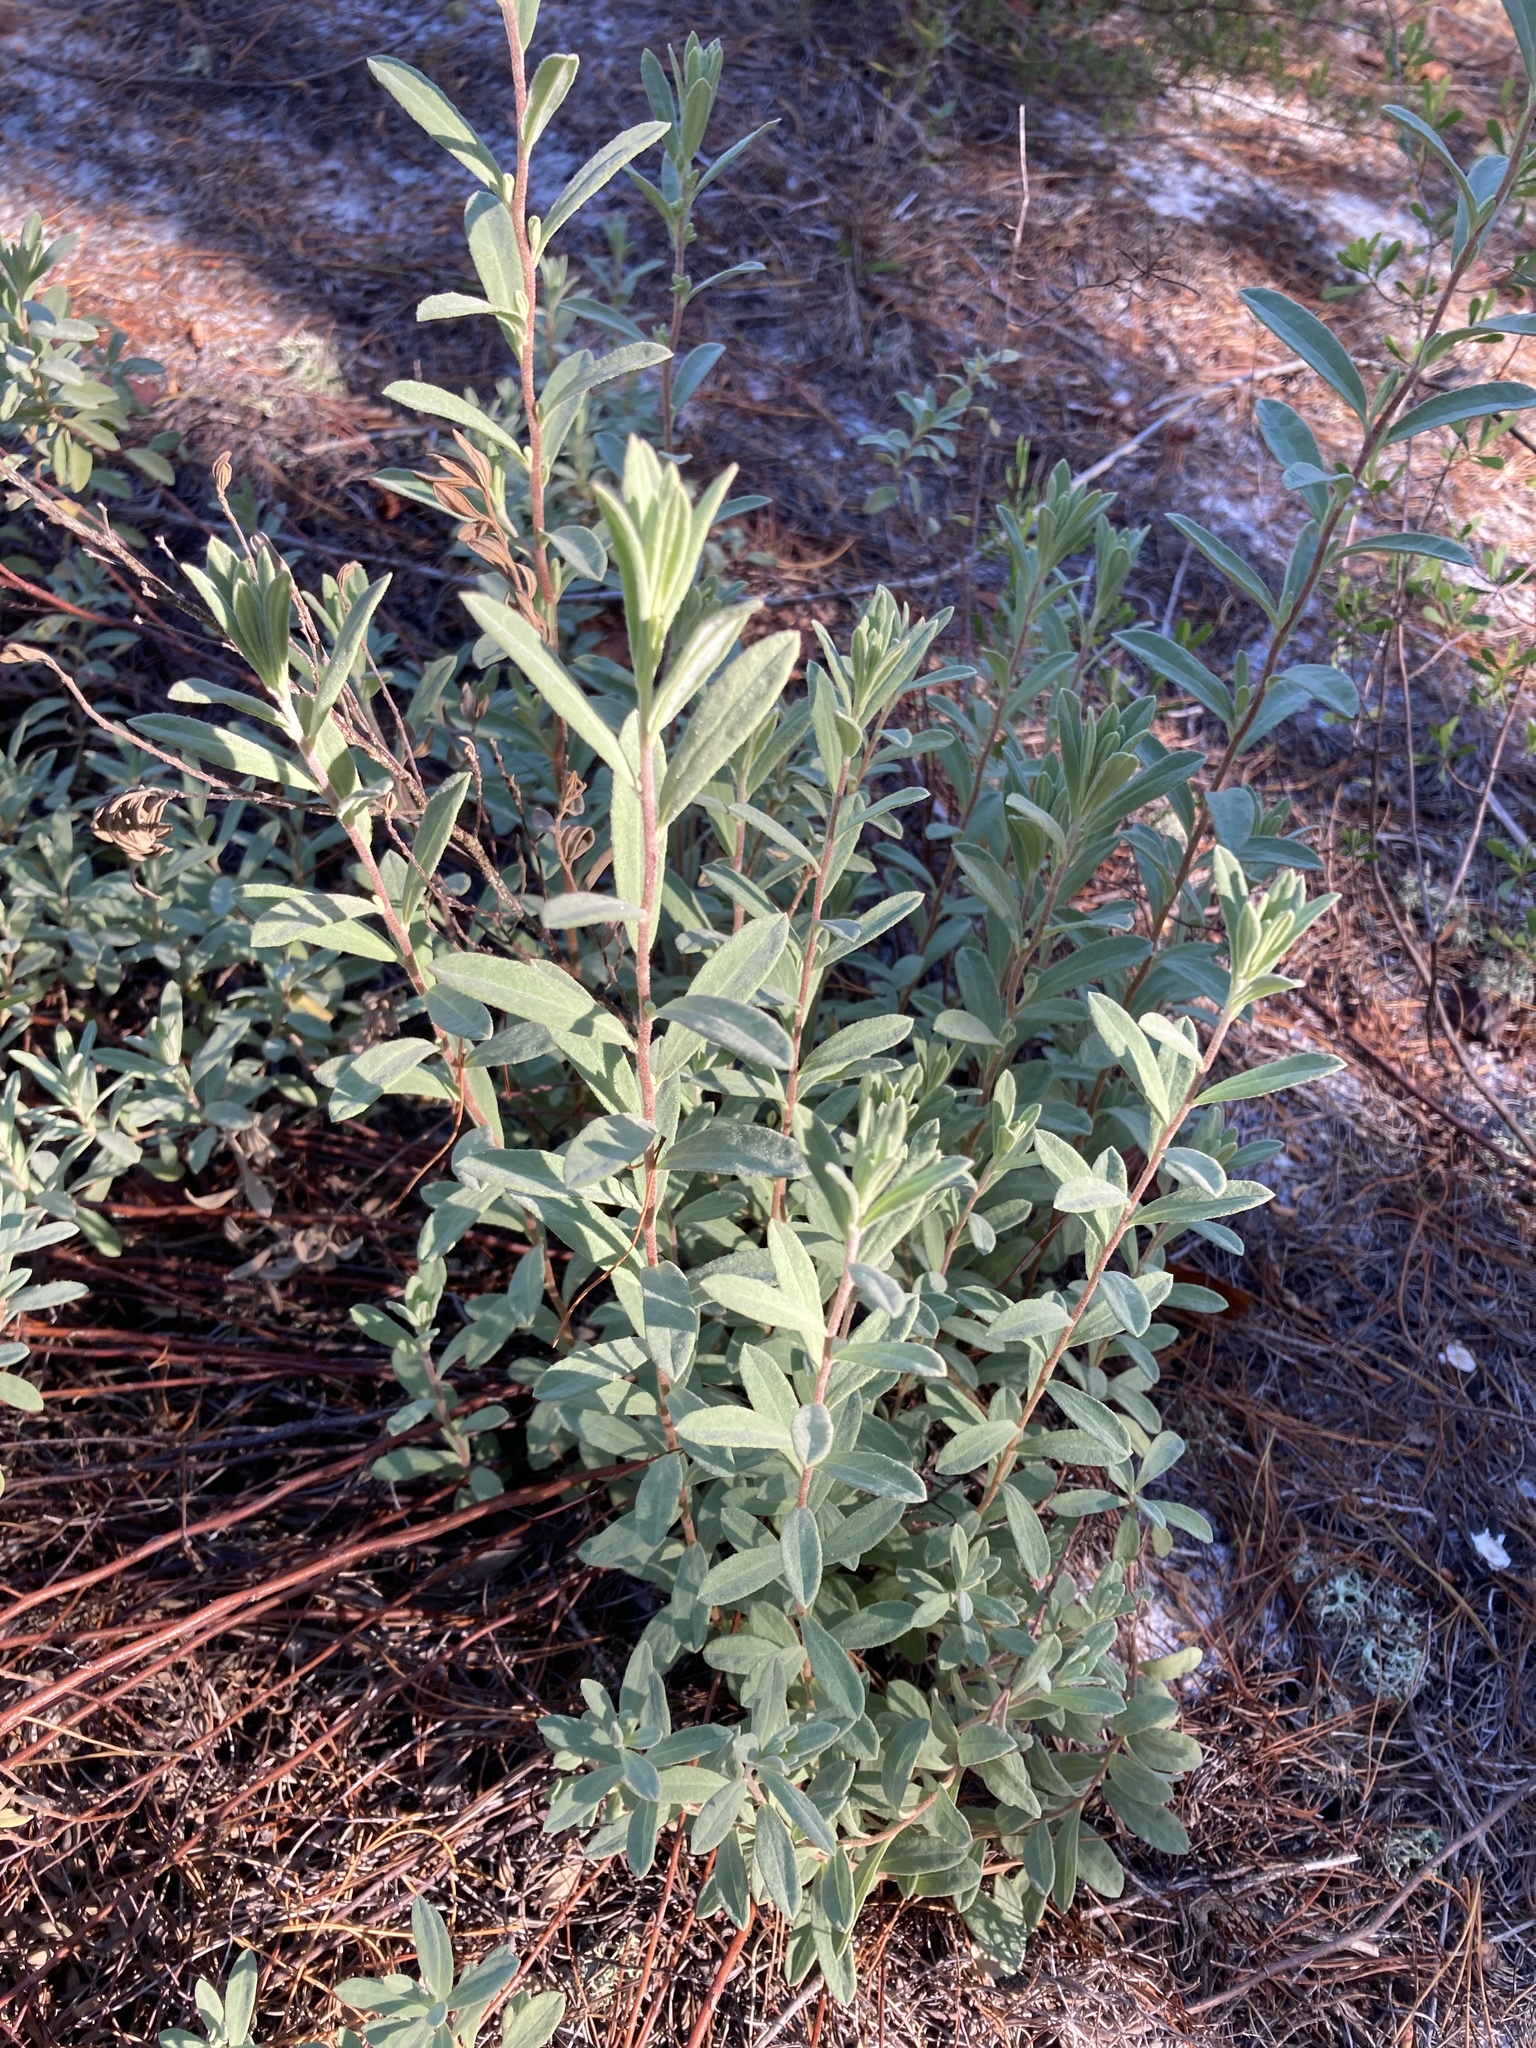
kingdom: Plantae
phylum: Tracheophyta
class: Magnoliopsida
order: Malvales
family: Cistaceae
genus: Crocanthemum
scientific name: Crocanthemum nashii
